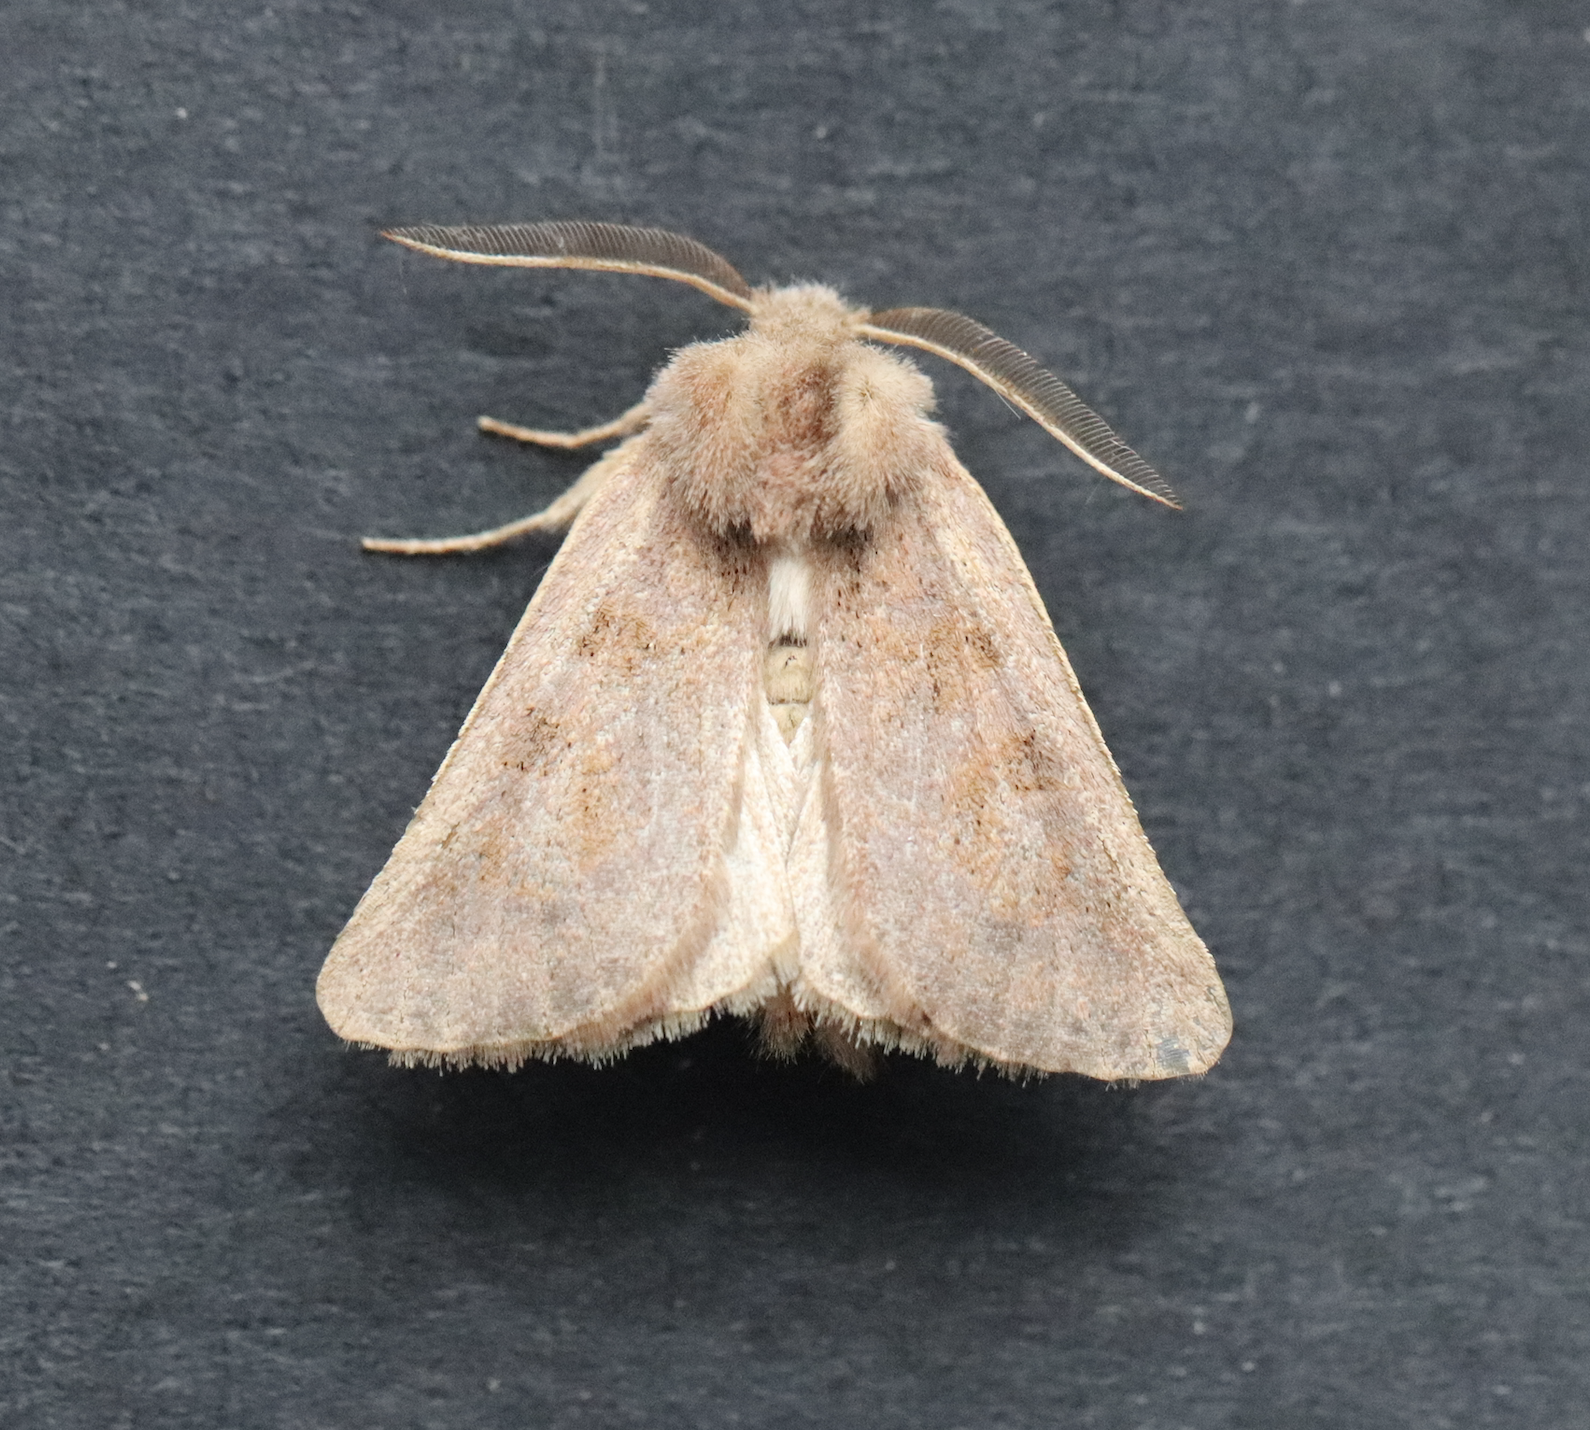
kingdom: Animalia
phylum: Arthropoda
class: Insecta
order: Lepidoptera
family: Noctuidae
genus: Episema
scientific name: Episema glaucina
